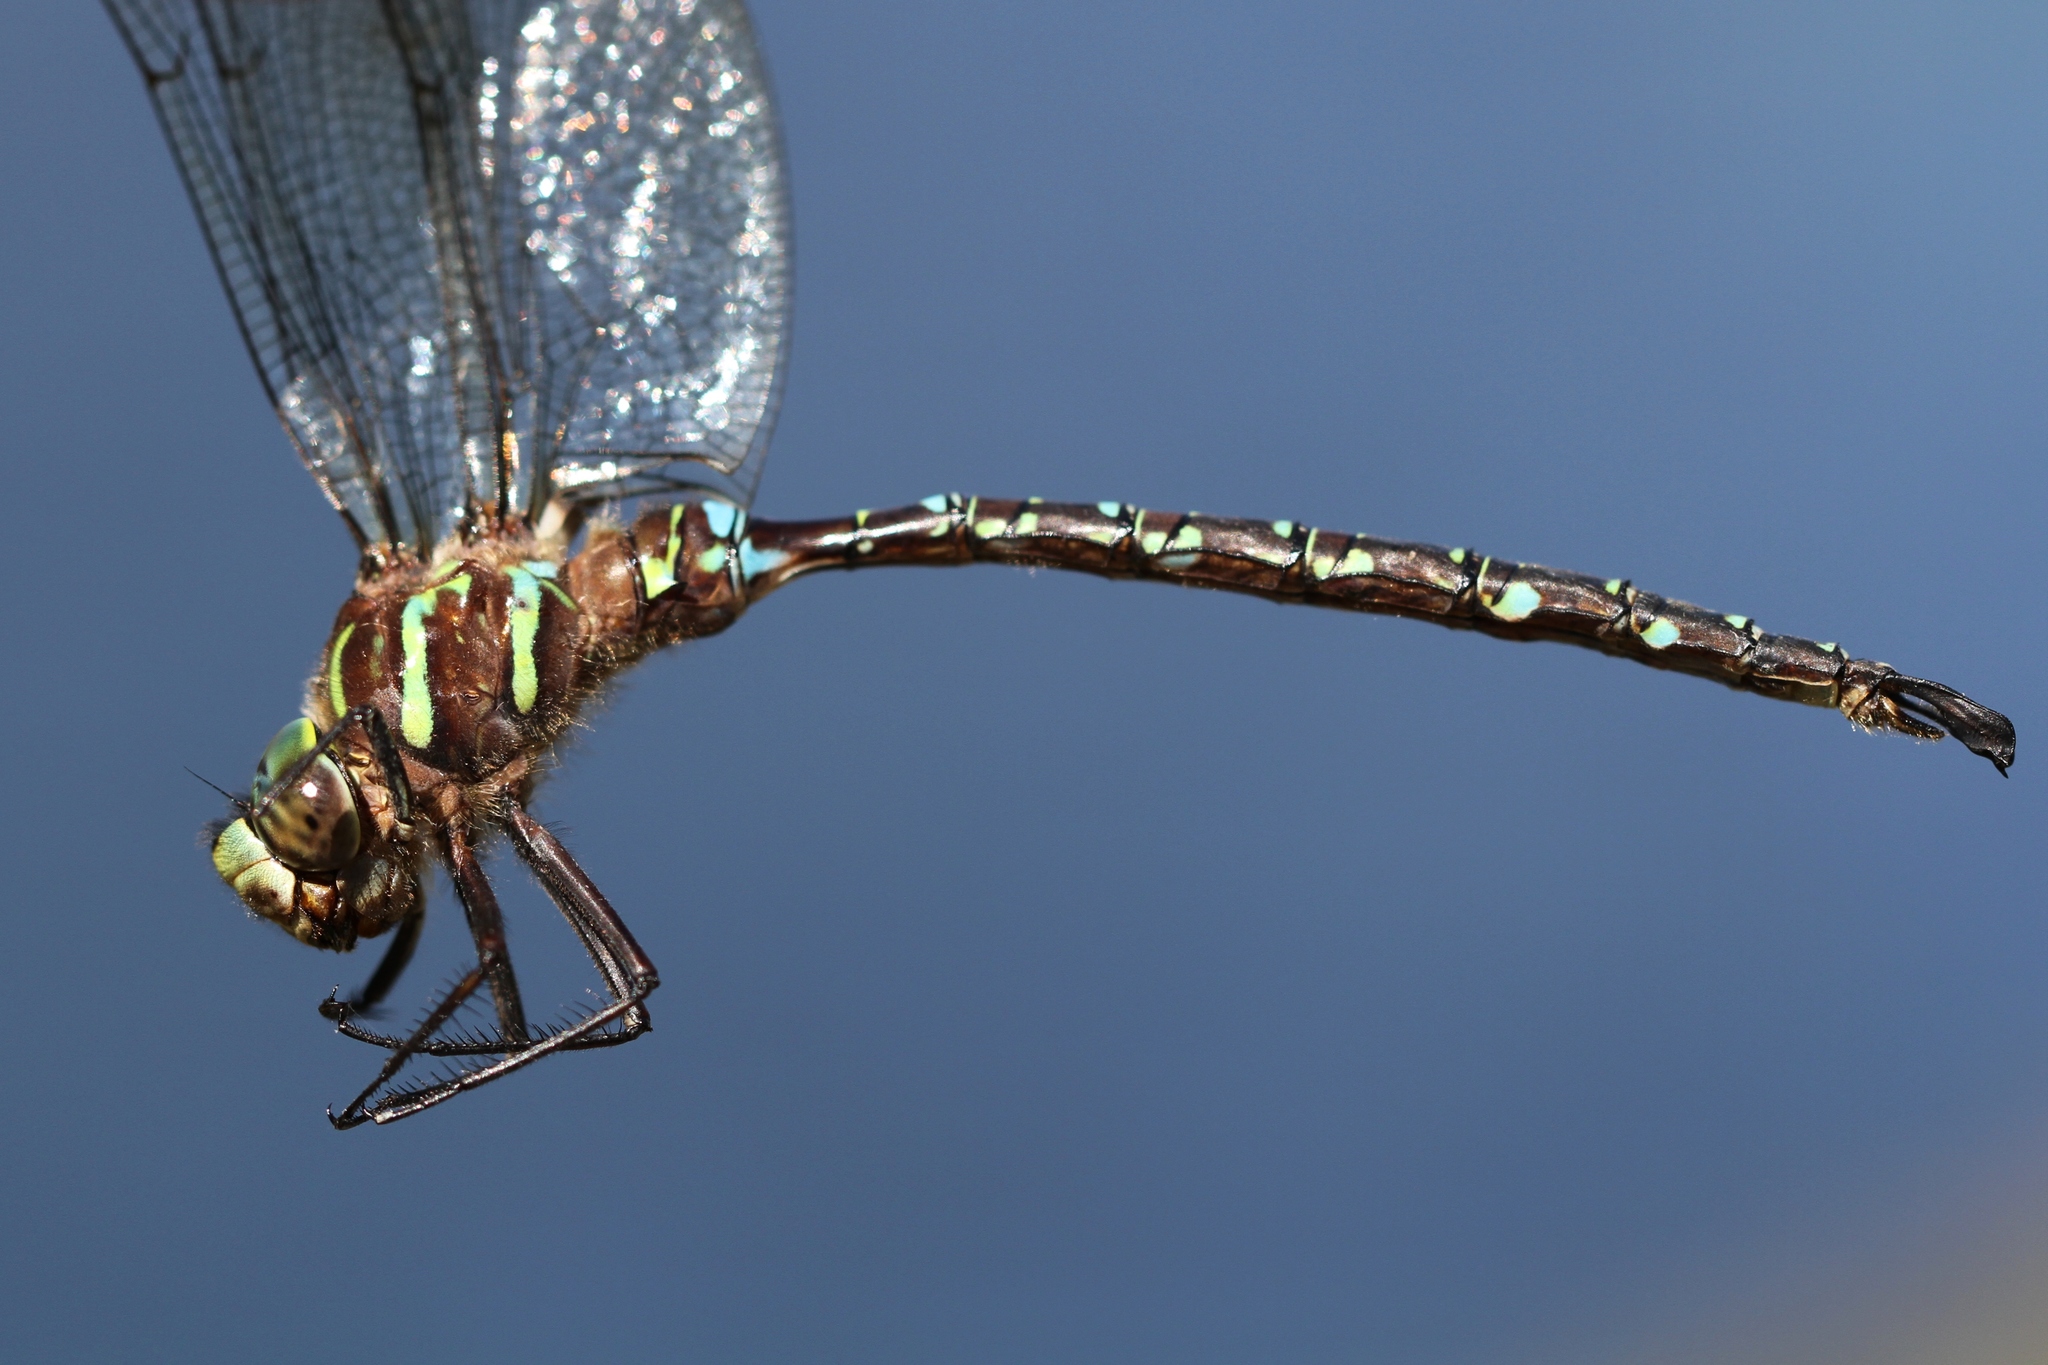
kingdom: Animalia
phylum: Arthropoda
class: Insecta
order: Odonata
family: Aeshnidae
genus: Aeshna
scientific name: Aeshna umbrosa
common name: Shadow darner
